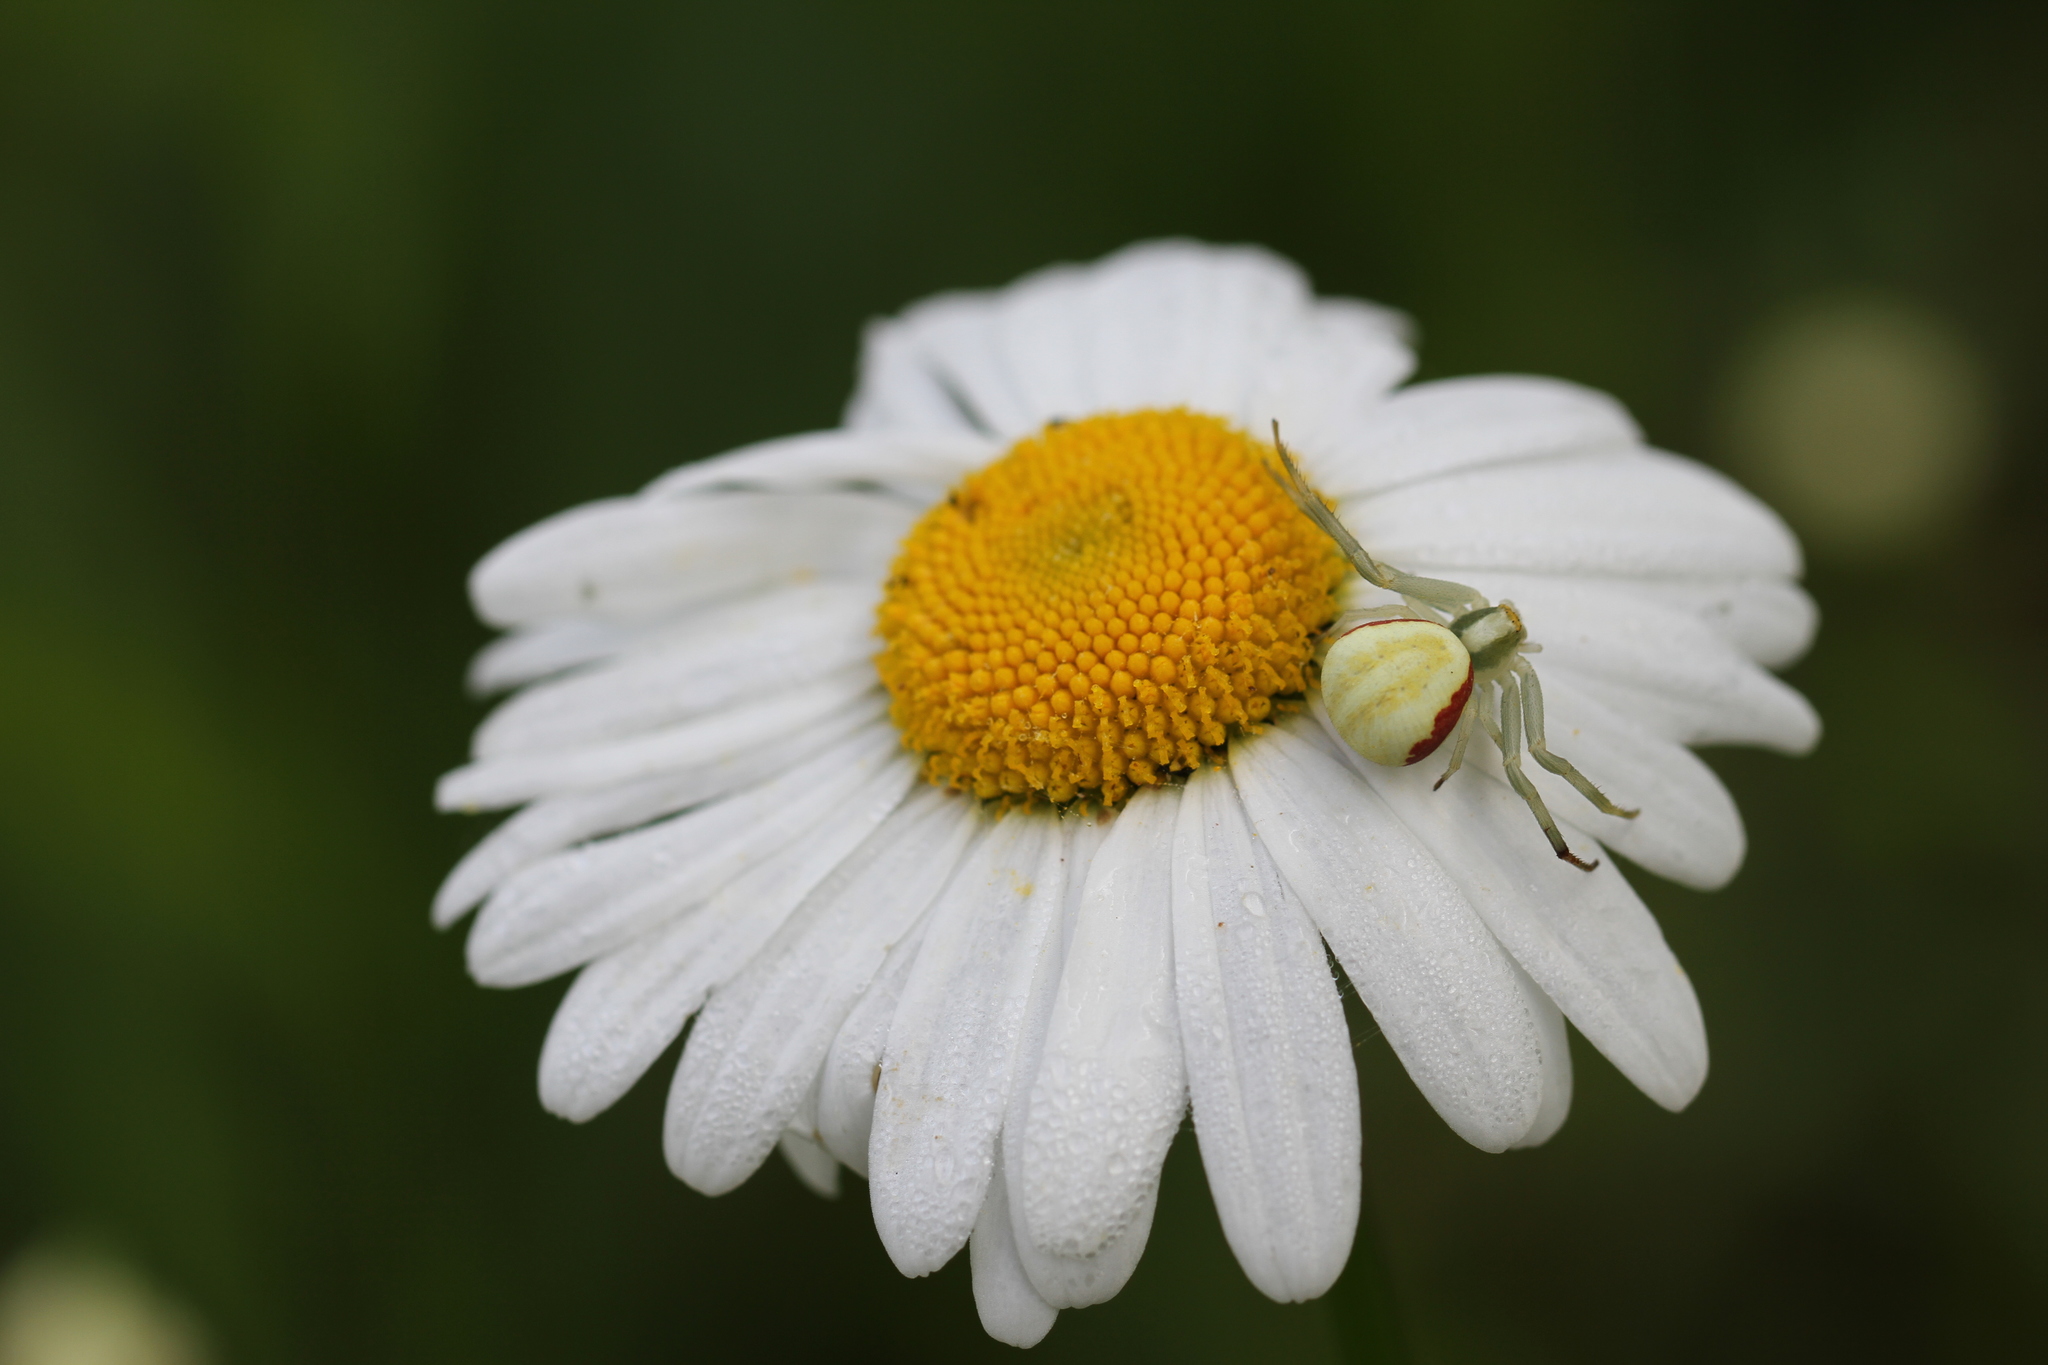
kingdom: Animalia
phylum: Arthropoda
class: Arachnida
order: Araneae
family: Thomisidae
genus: Misumena
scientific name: Misumena vatia
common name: Goldenrod crab spider
